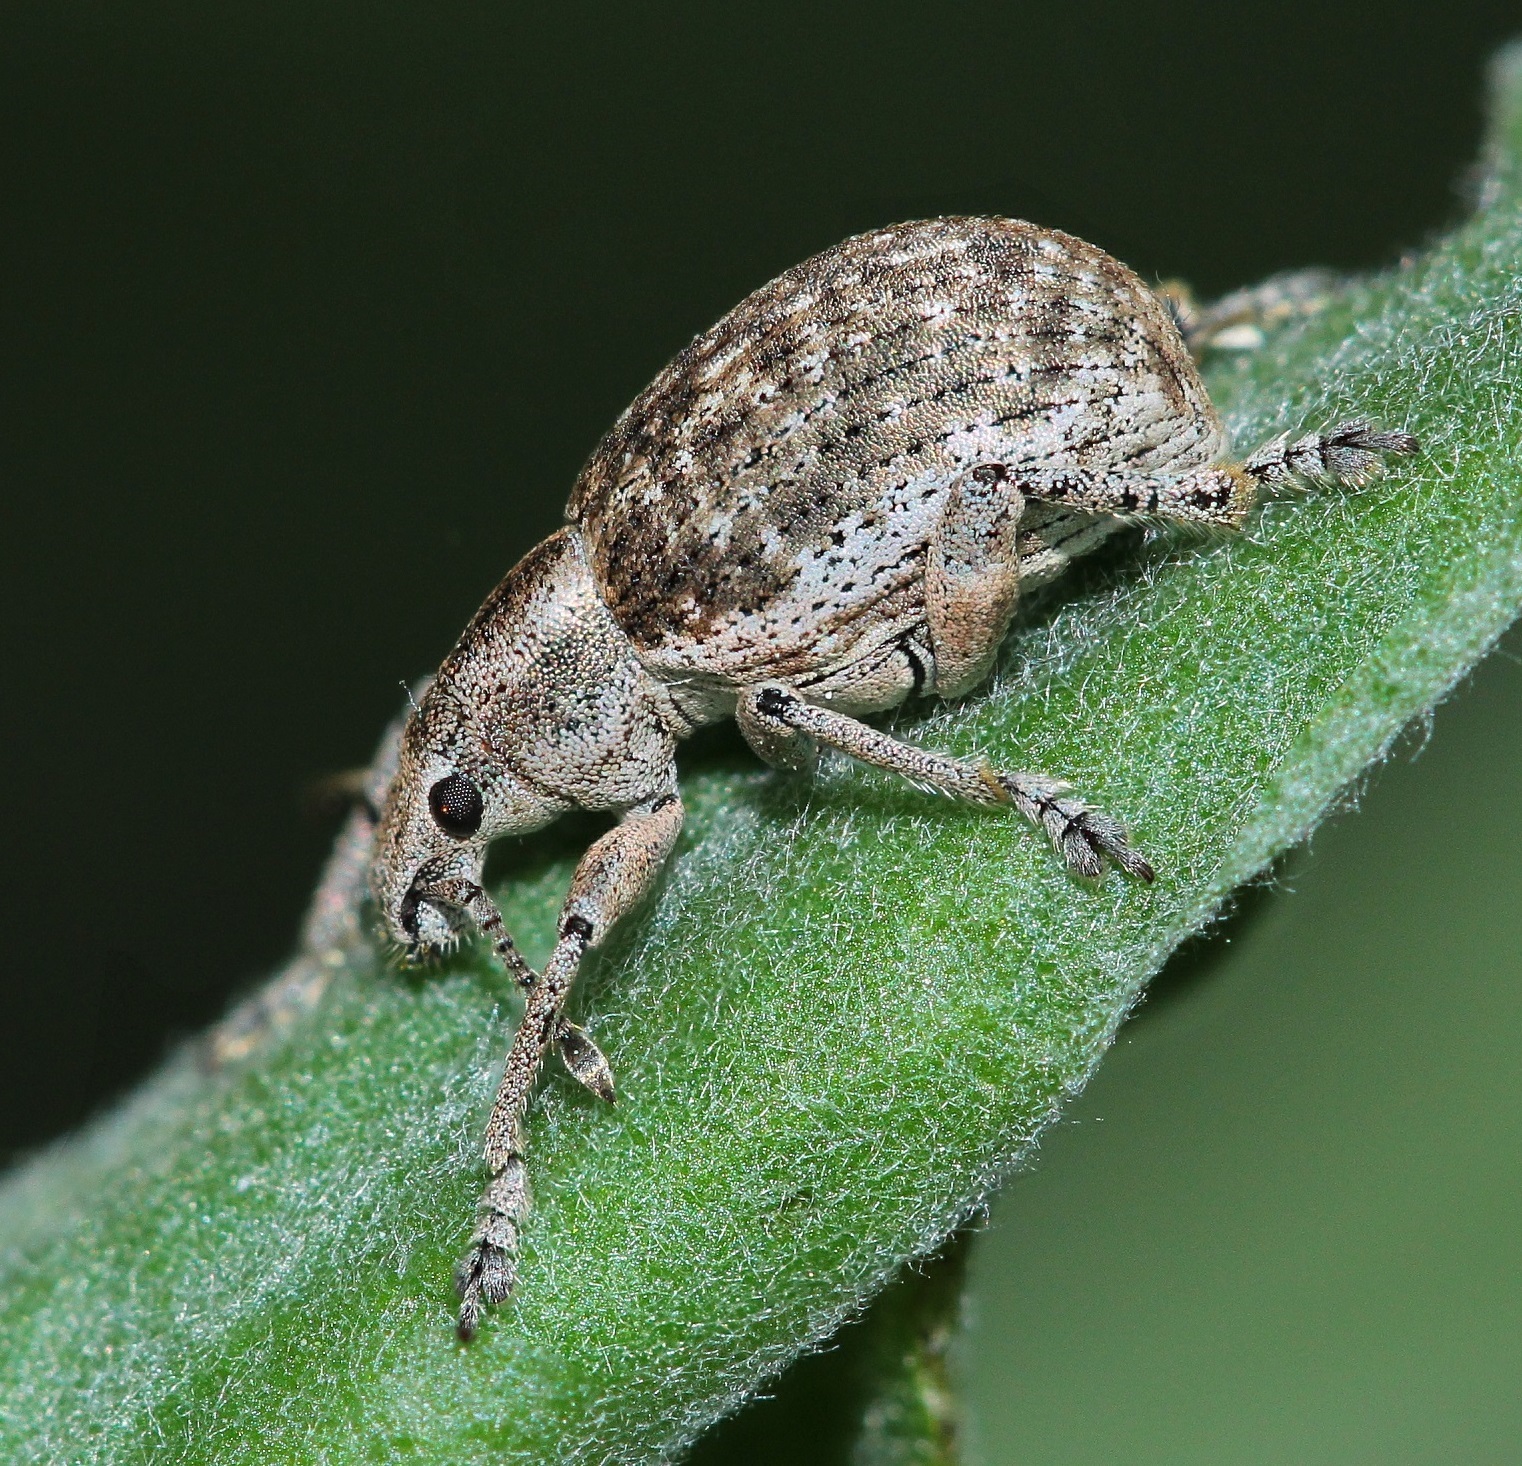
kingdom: Animalia
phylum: Arthropoda
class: Insecta
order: Coleoptera
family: Curculionidae
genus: Attactagenus
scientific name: Attactagenus albinus
